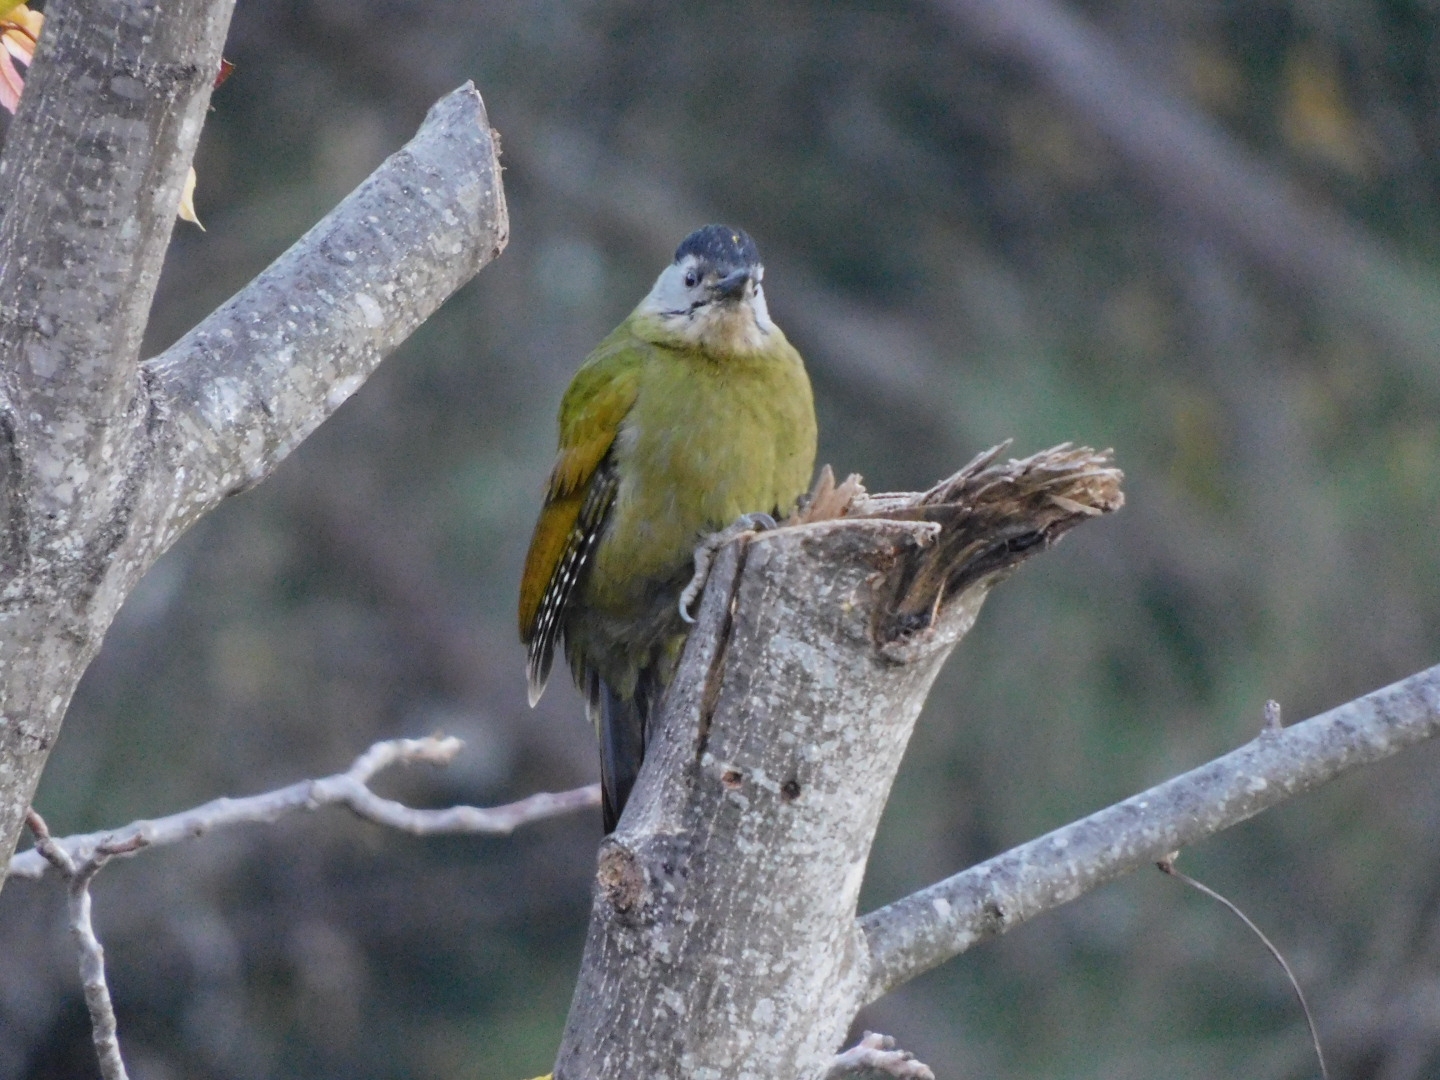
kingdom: Animalia
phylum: Chordata
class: Aves
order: Piciformes
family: Picidae
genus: Picus
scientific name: Picus canus
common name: Grey-headed woodpecker
